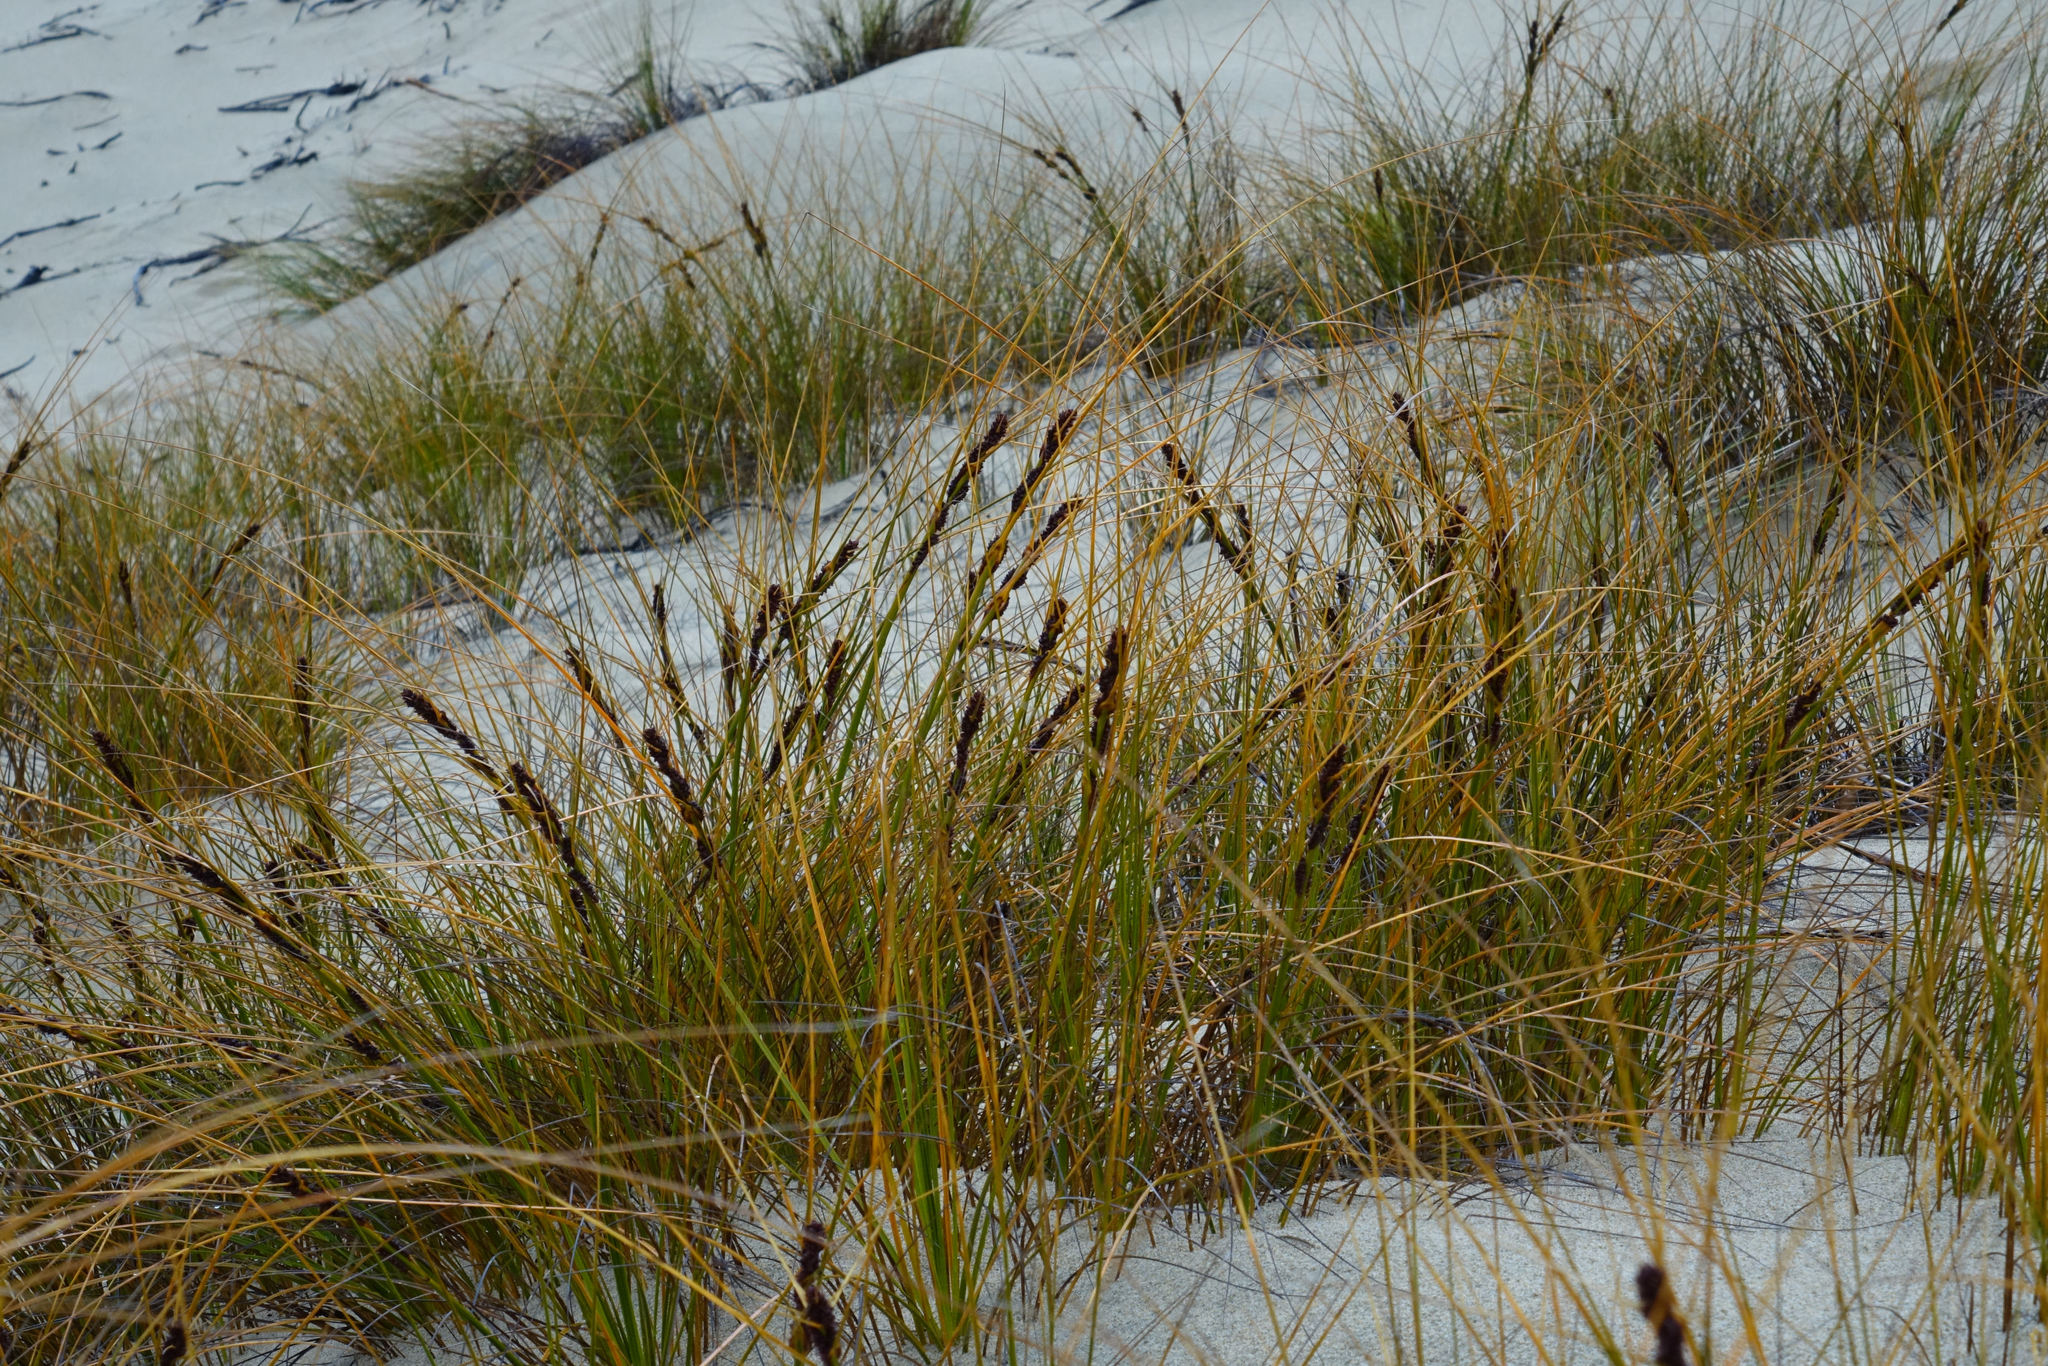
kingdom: Plantae
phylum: Tracheophyta
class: Liliopsida
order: Poales
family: Cyperaceae
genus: Ficinia
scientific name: Ficinia spiralis
